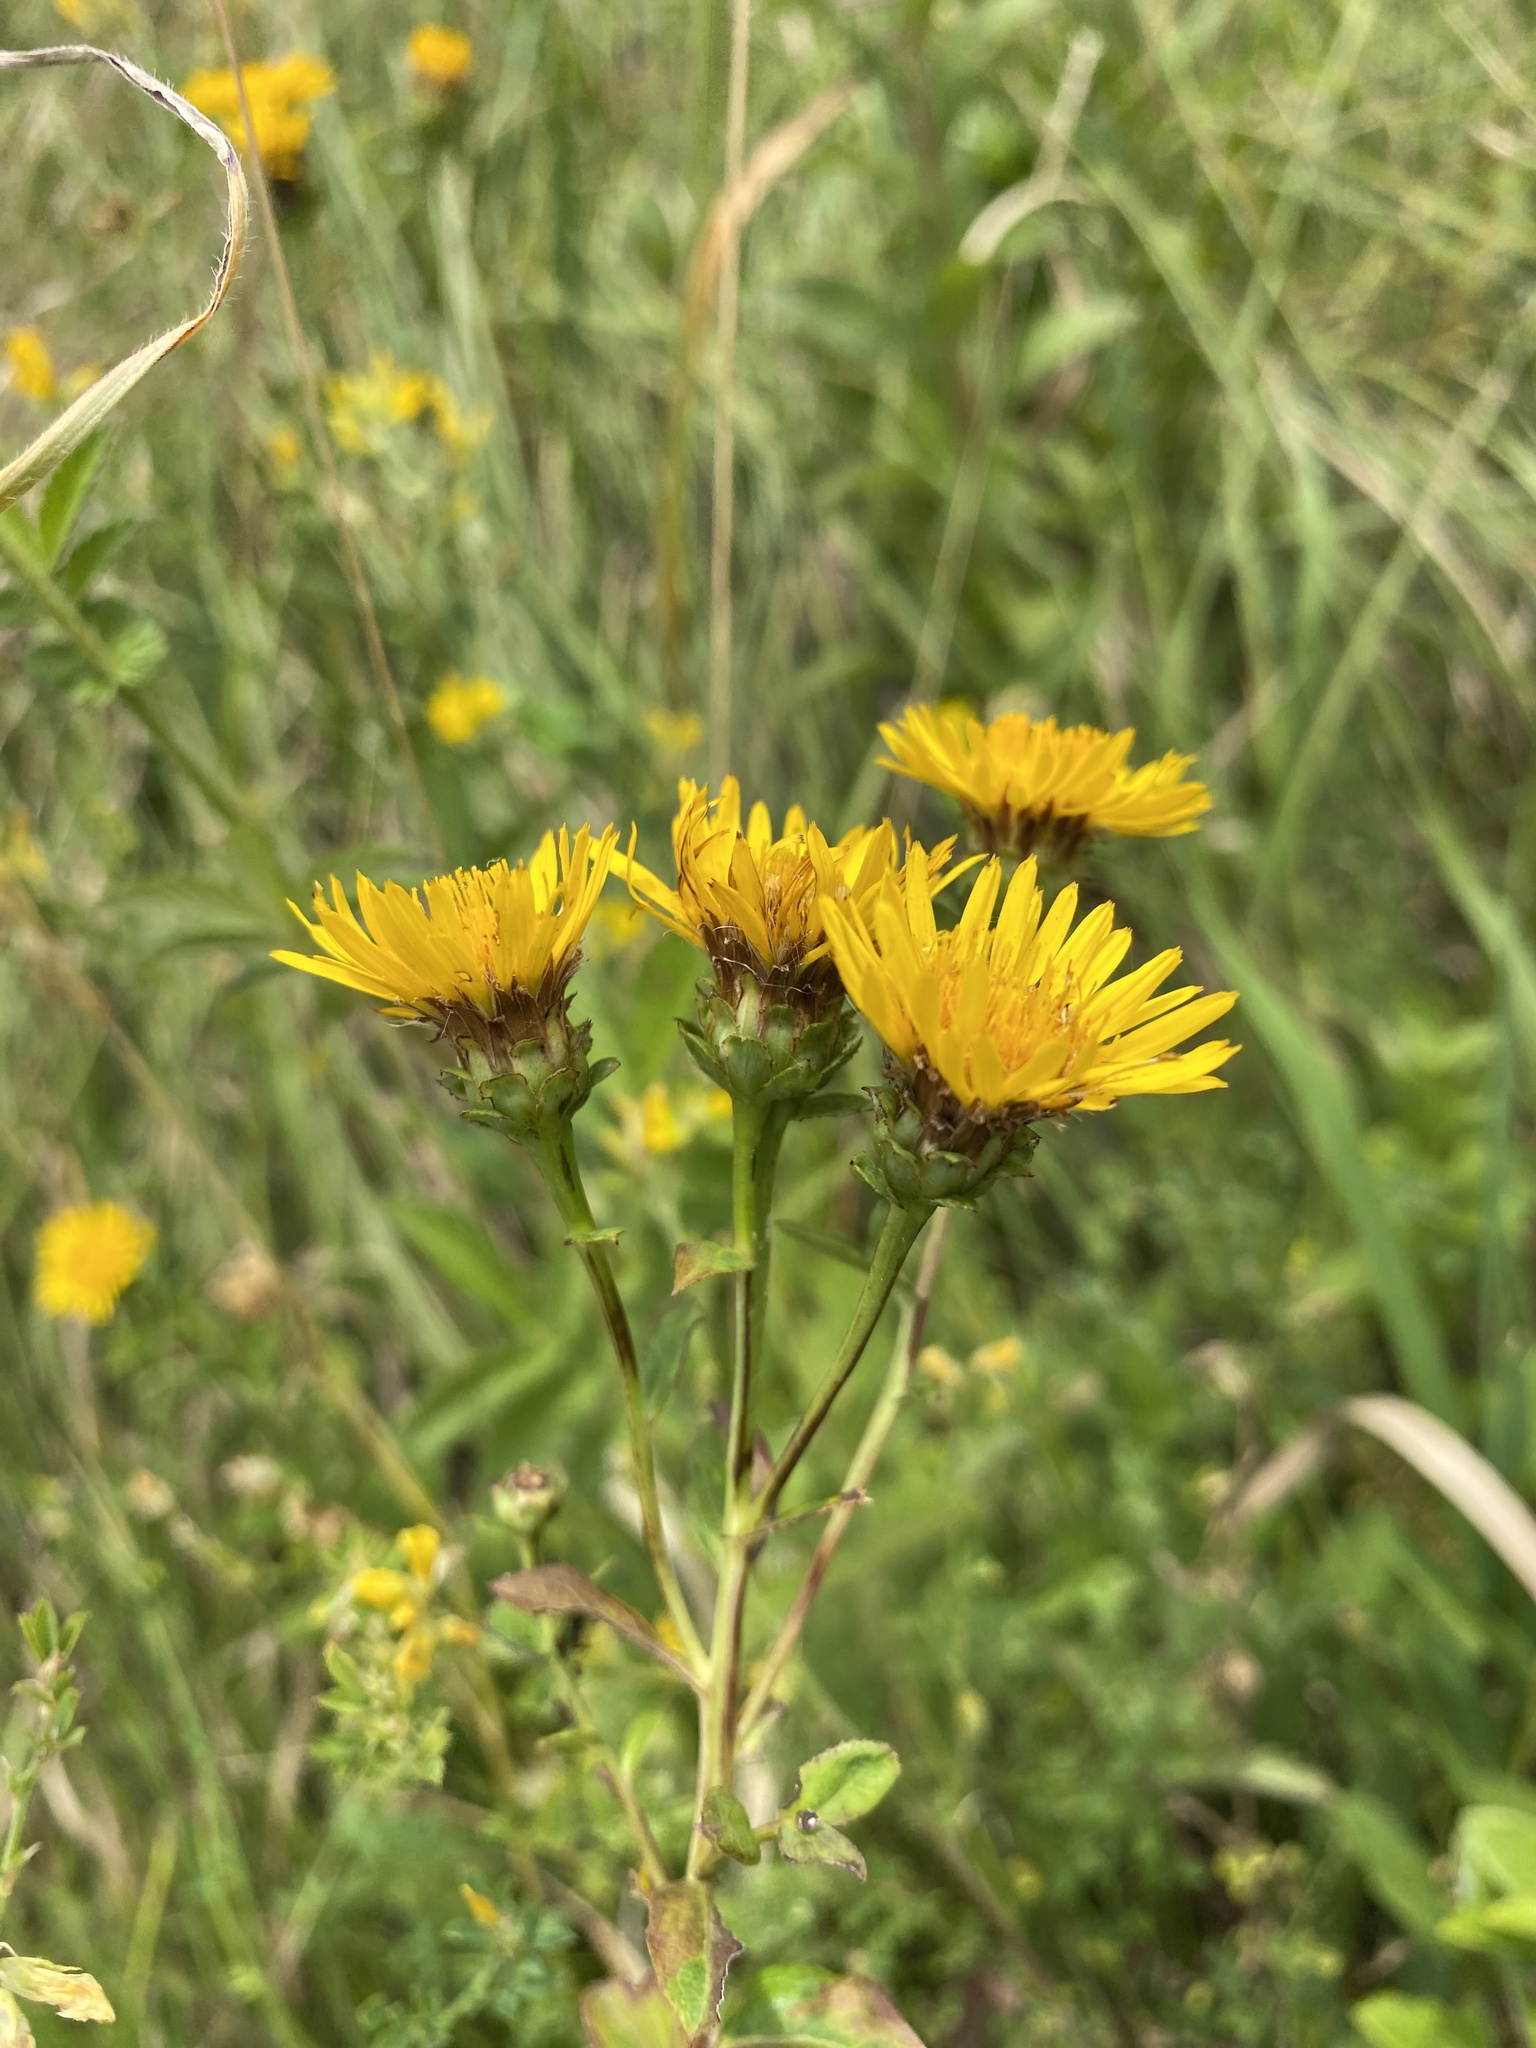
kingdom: Plantae
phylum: Tracheophyta
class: Magnoliopsida
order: Asterales
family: Asteraceae
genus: Pentanema
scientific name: Pentanema asperum
